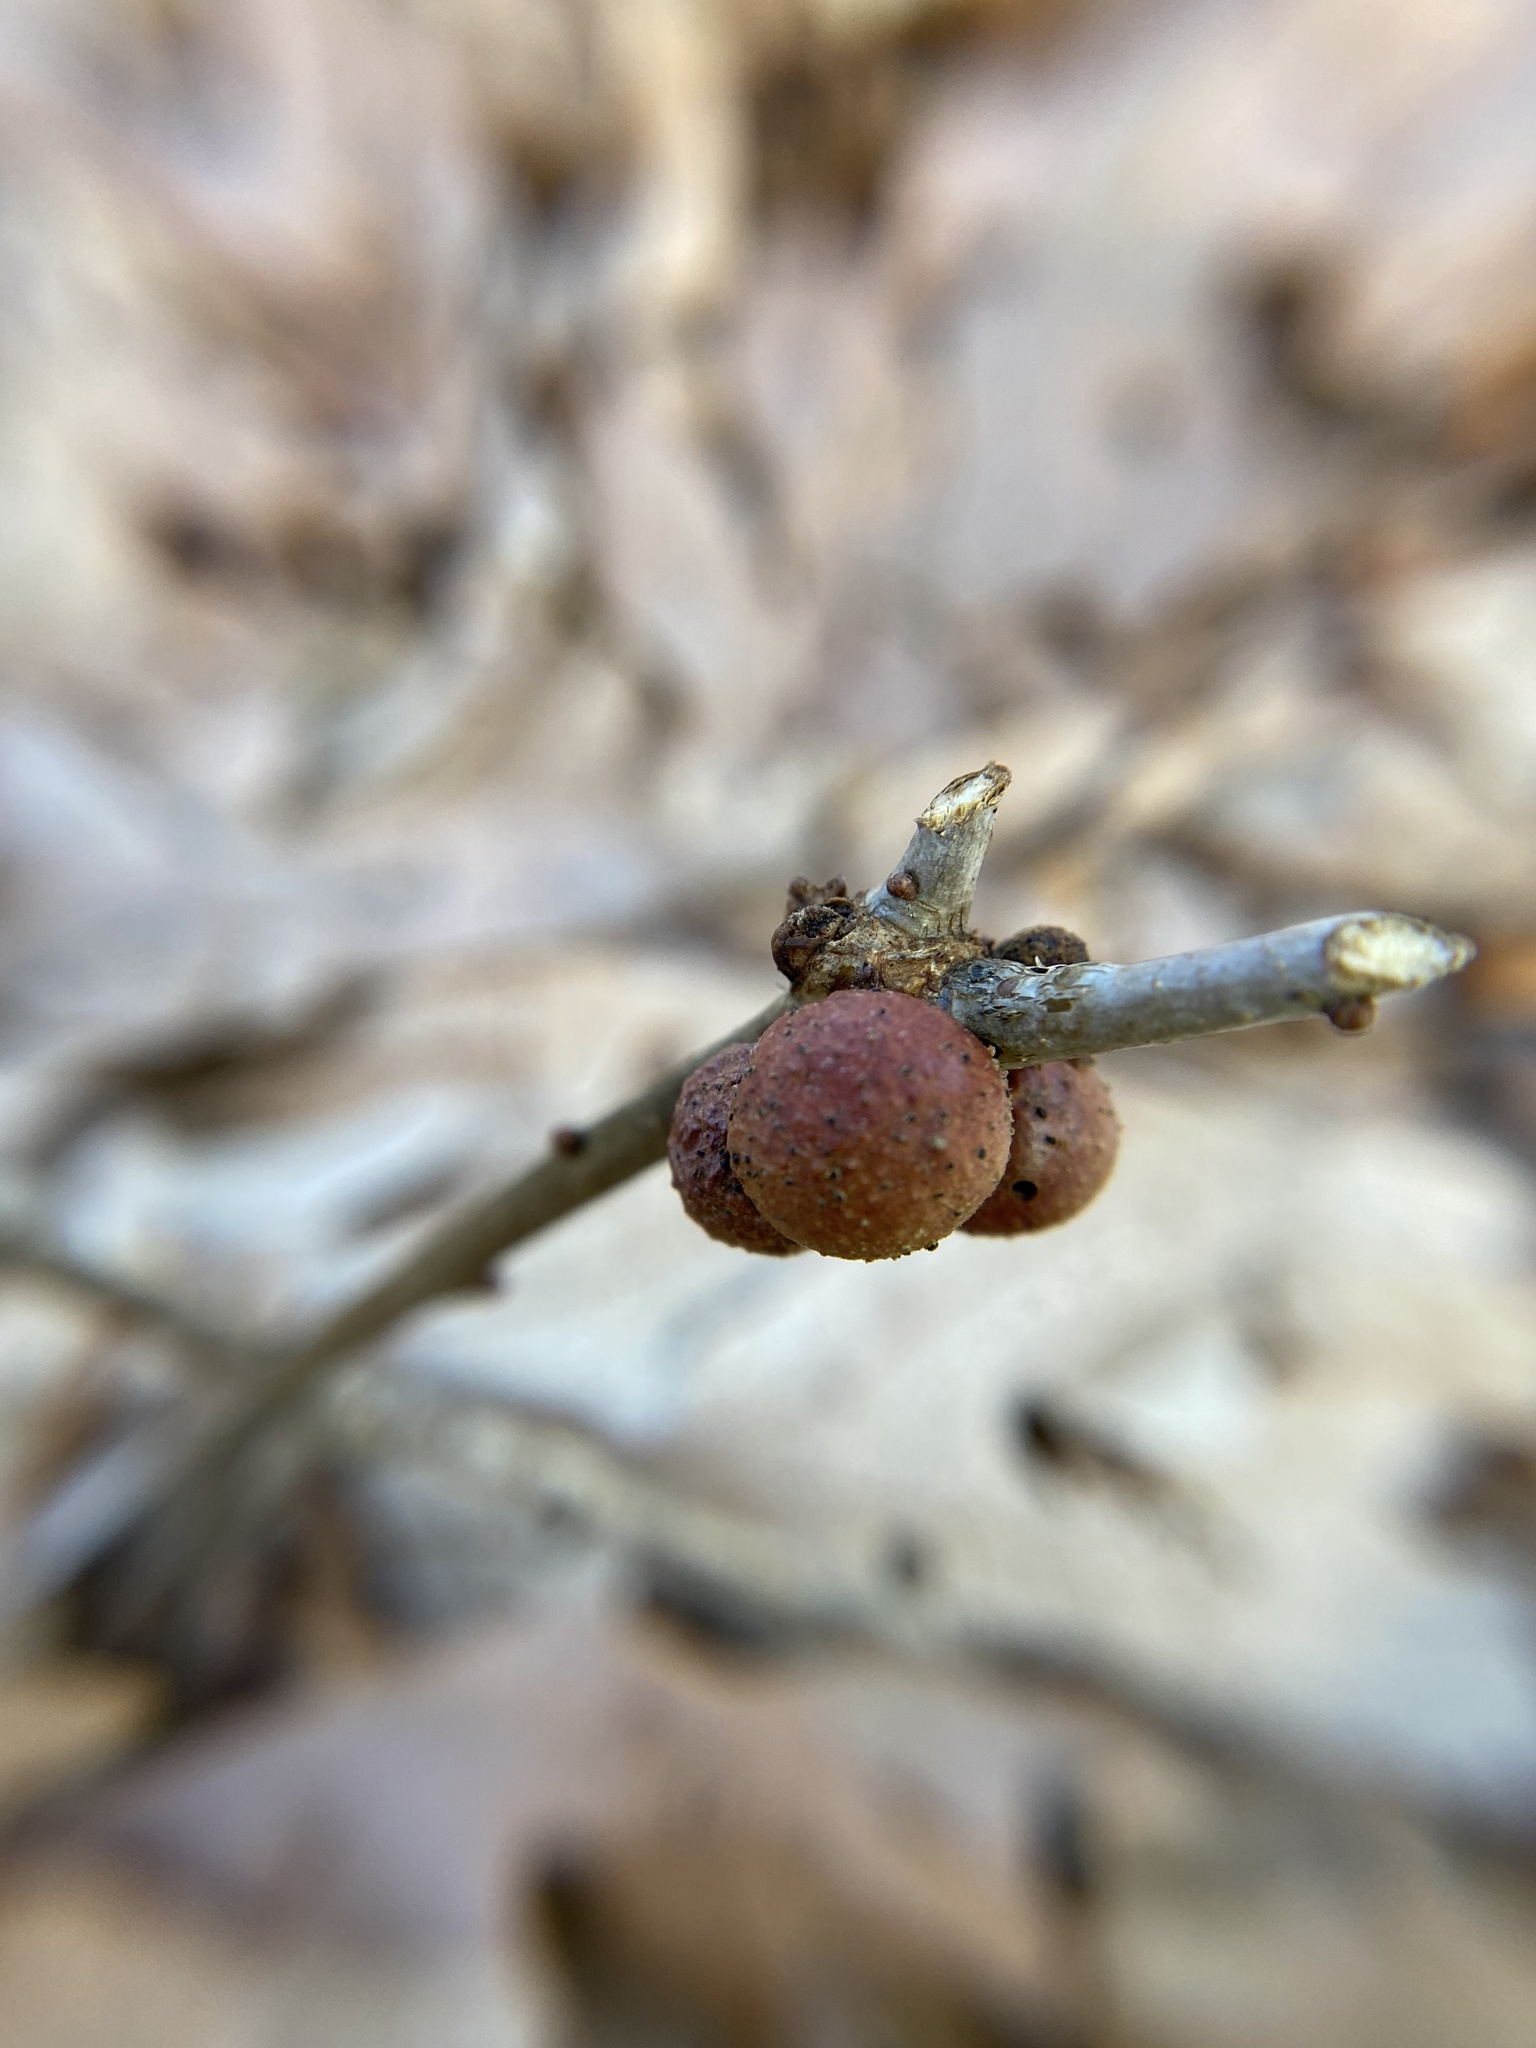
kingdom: Animalia
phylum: Arthropoda
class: Insecta
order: Hymenoptera
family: Cynipidae
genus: Disholcaspis
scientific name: Disholcaspis quercusglobulus
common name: Round bullet gall wasp
